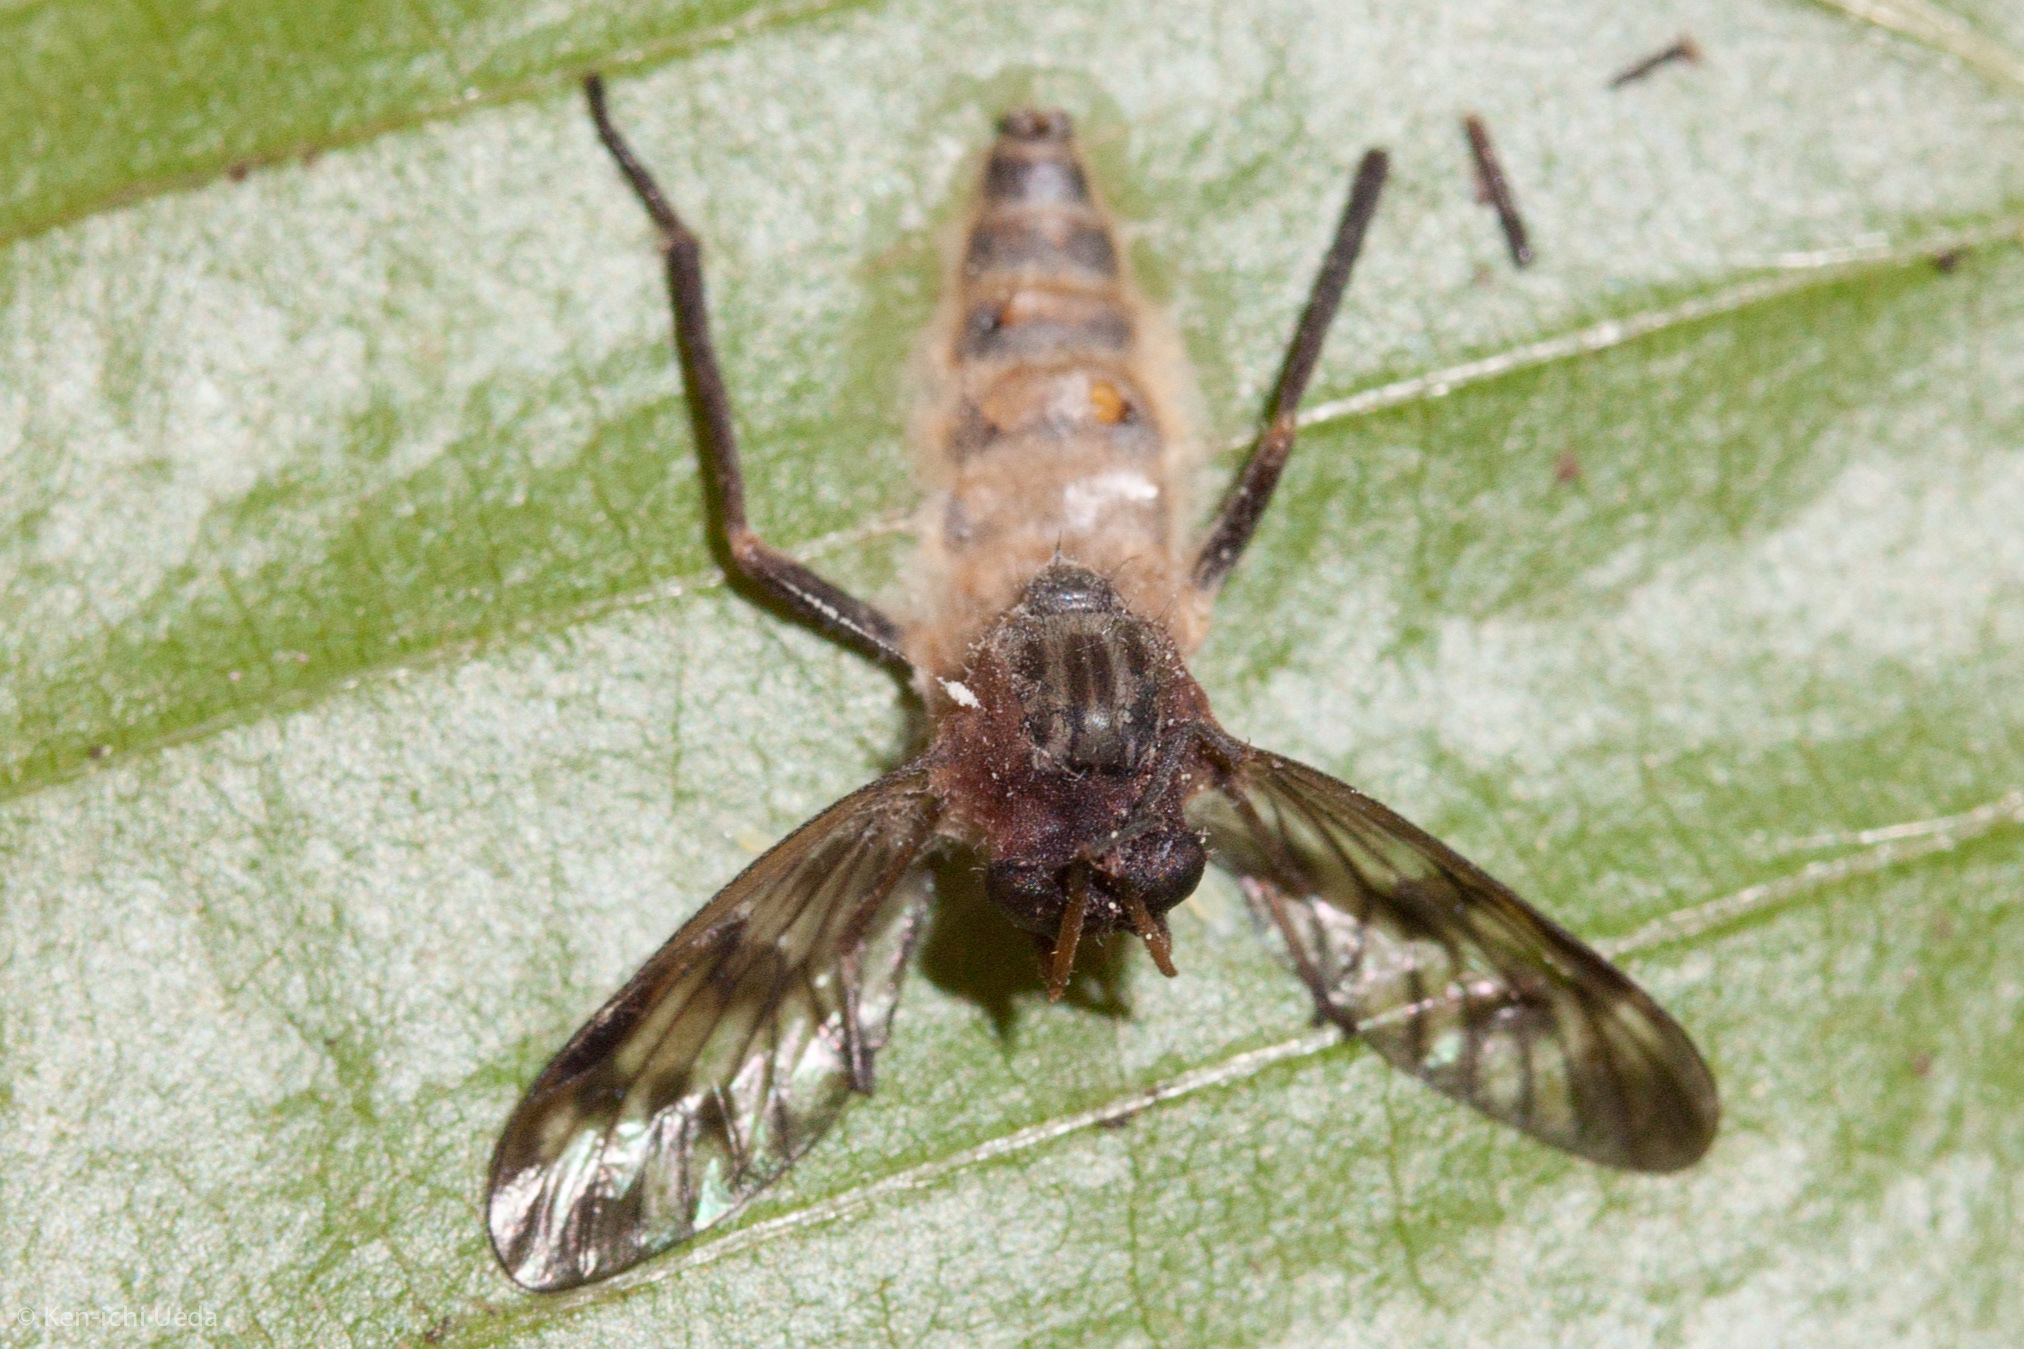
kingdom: Animalia
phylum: Arthropoda
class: Insecta
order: Diptera
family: Rhagionidae
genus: Rhagio
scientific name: Rhagio mystaceus
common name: Common snipe fly
